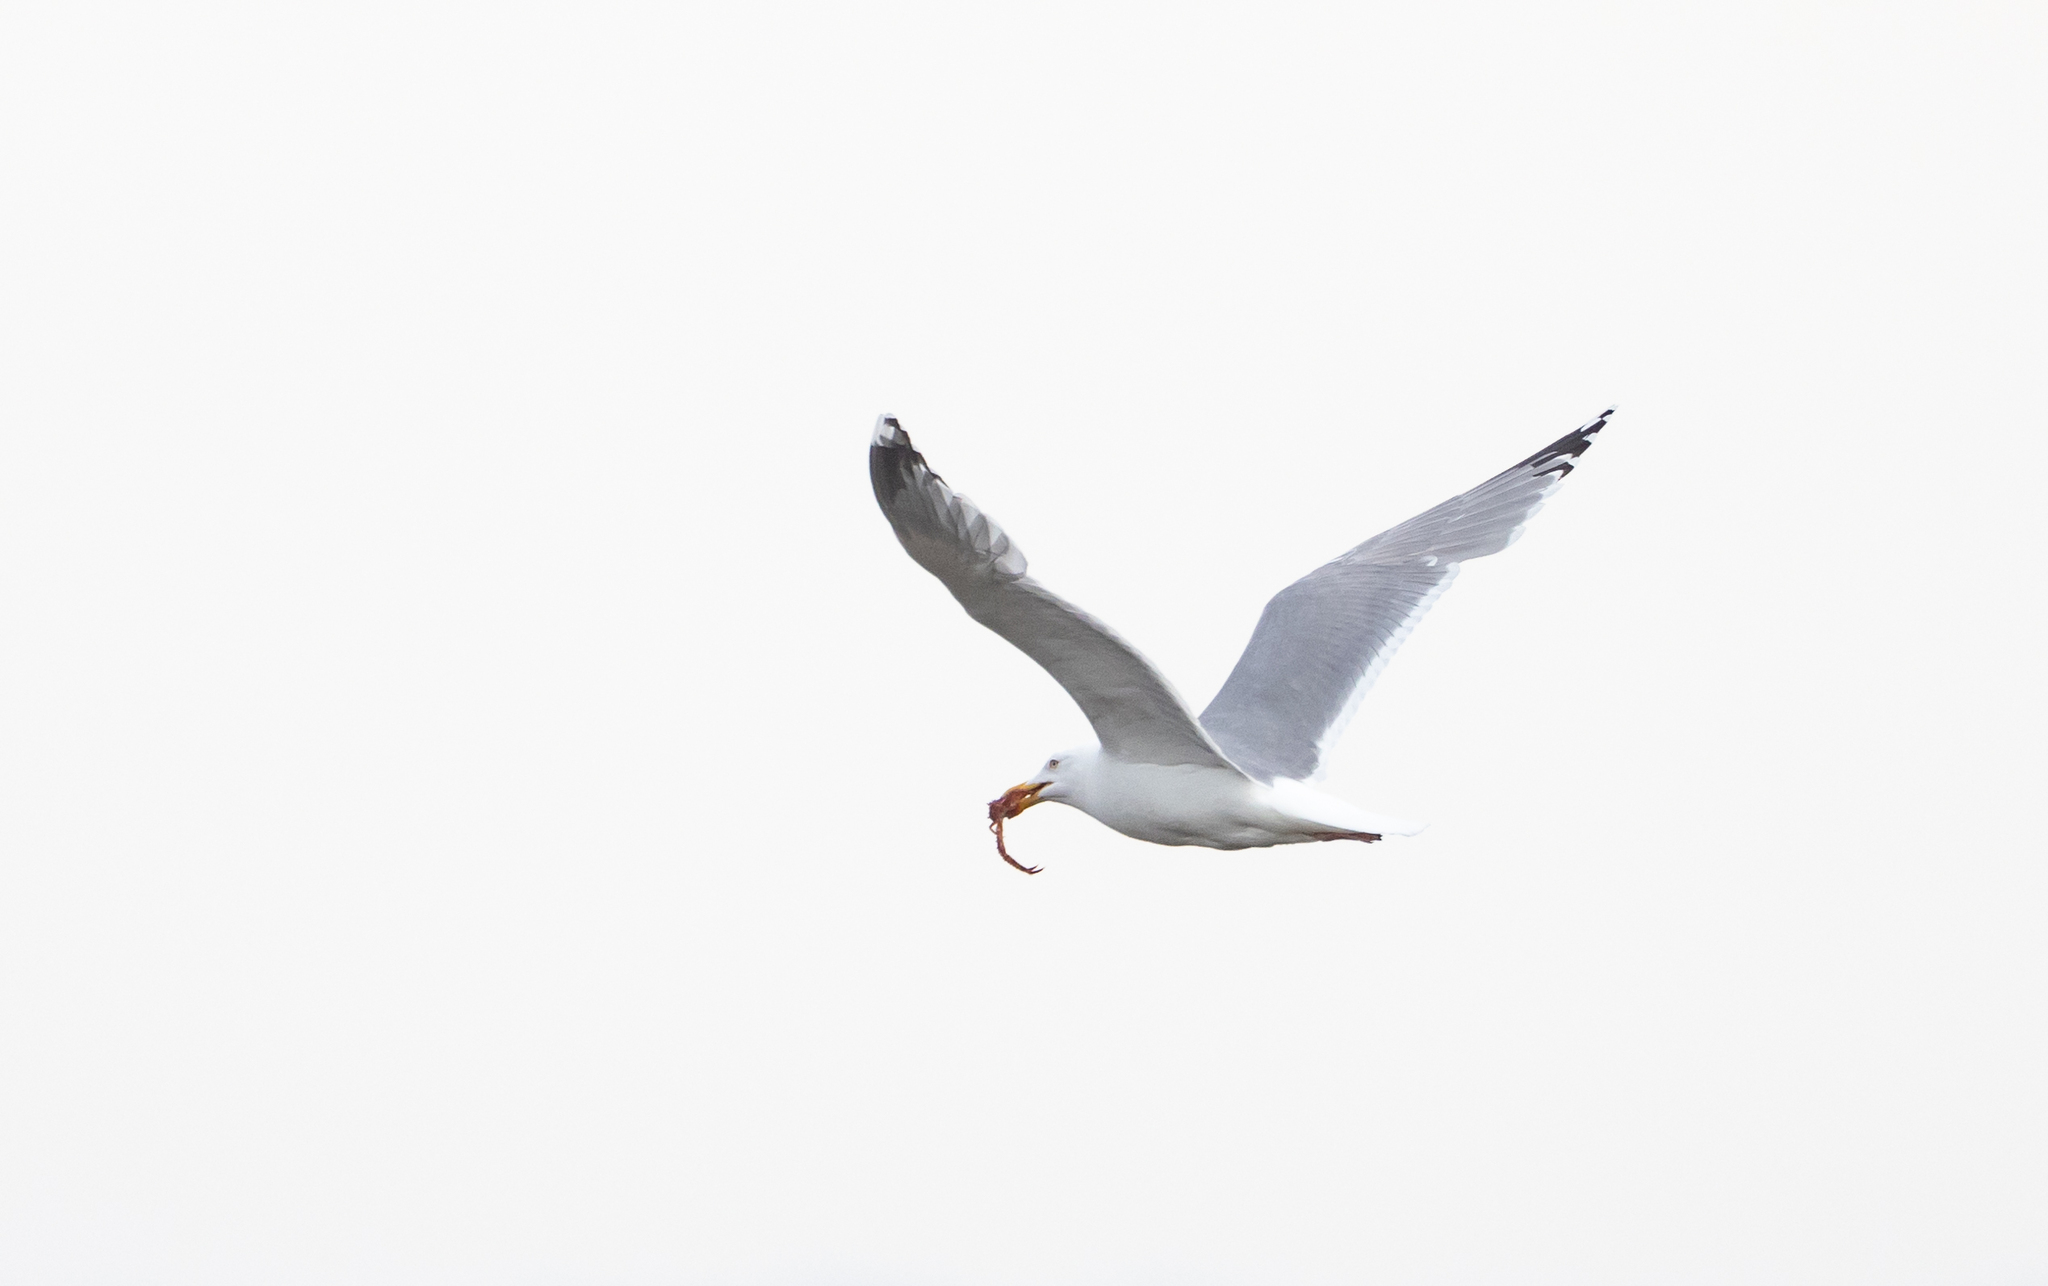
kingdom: Animalia
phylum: Chordata
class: Aves
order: Charadriiformes
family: Laridae
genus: Larus
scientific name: Larus argentatus
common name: Herring gull
